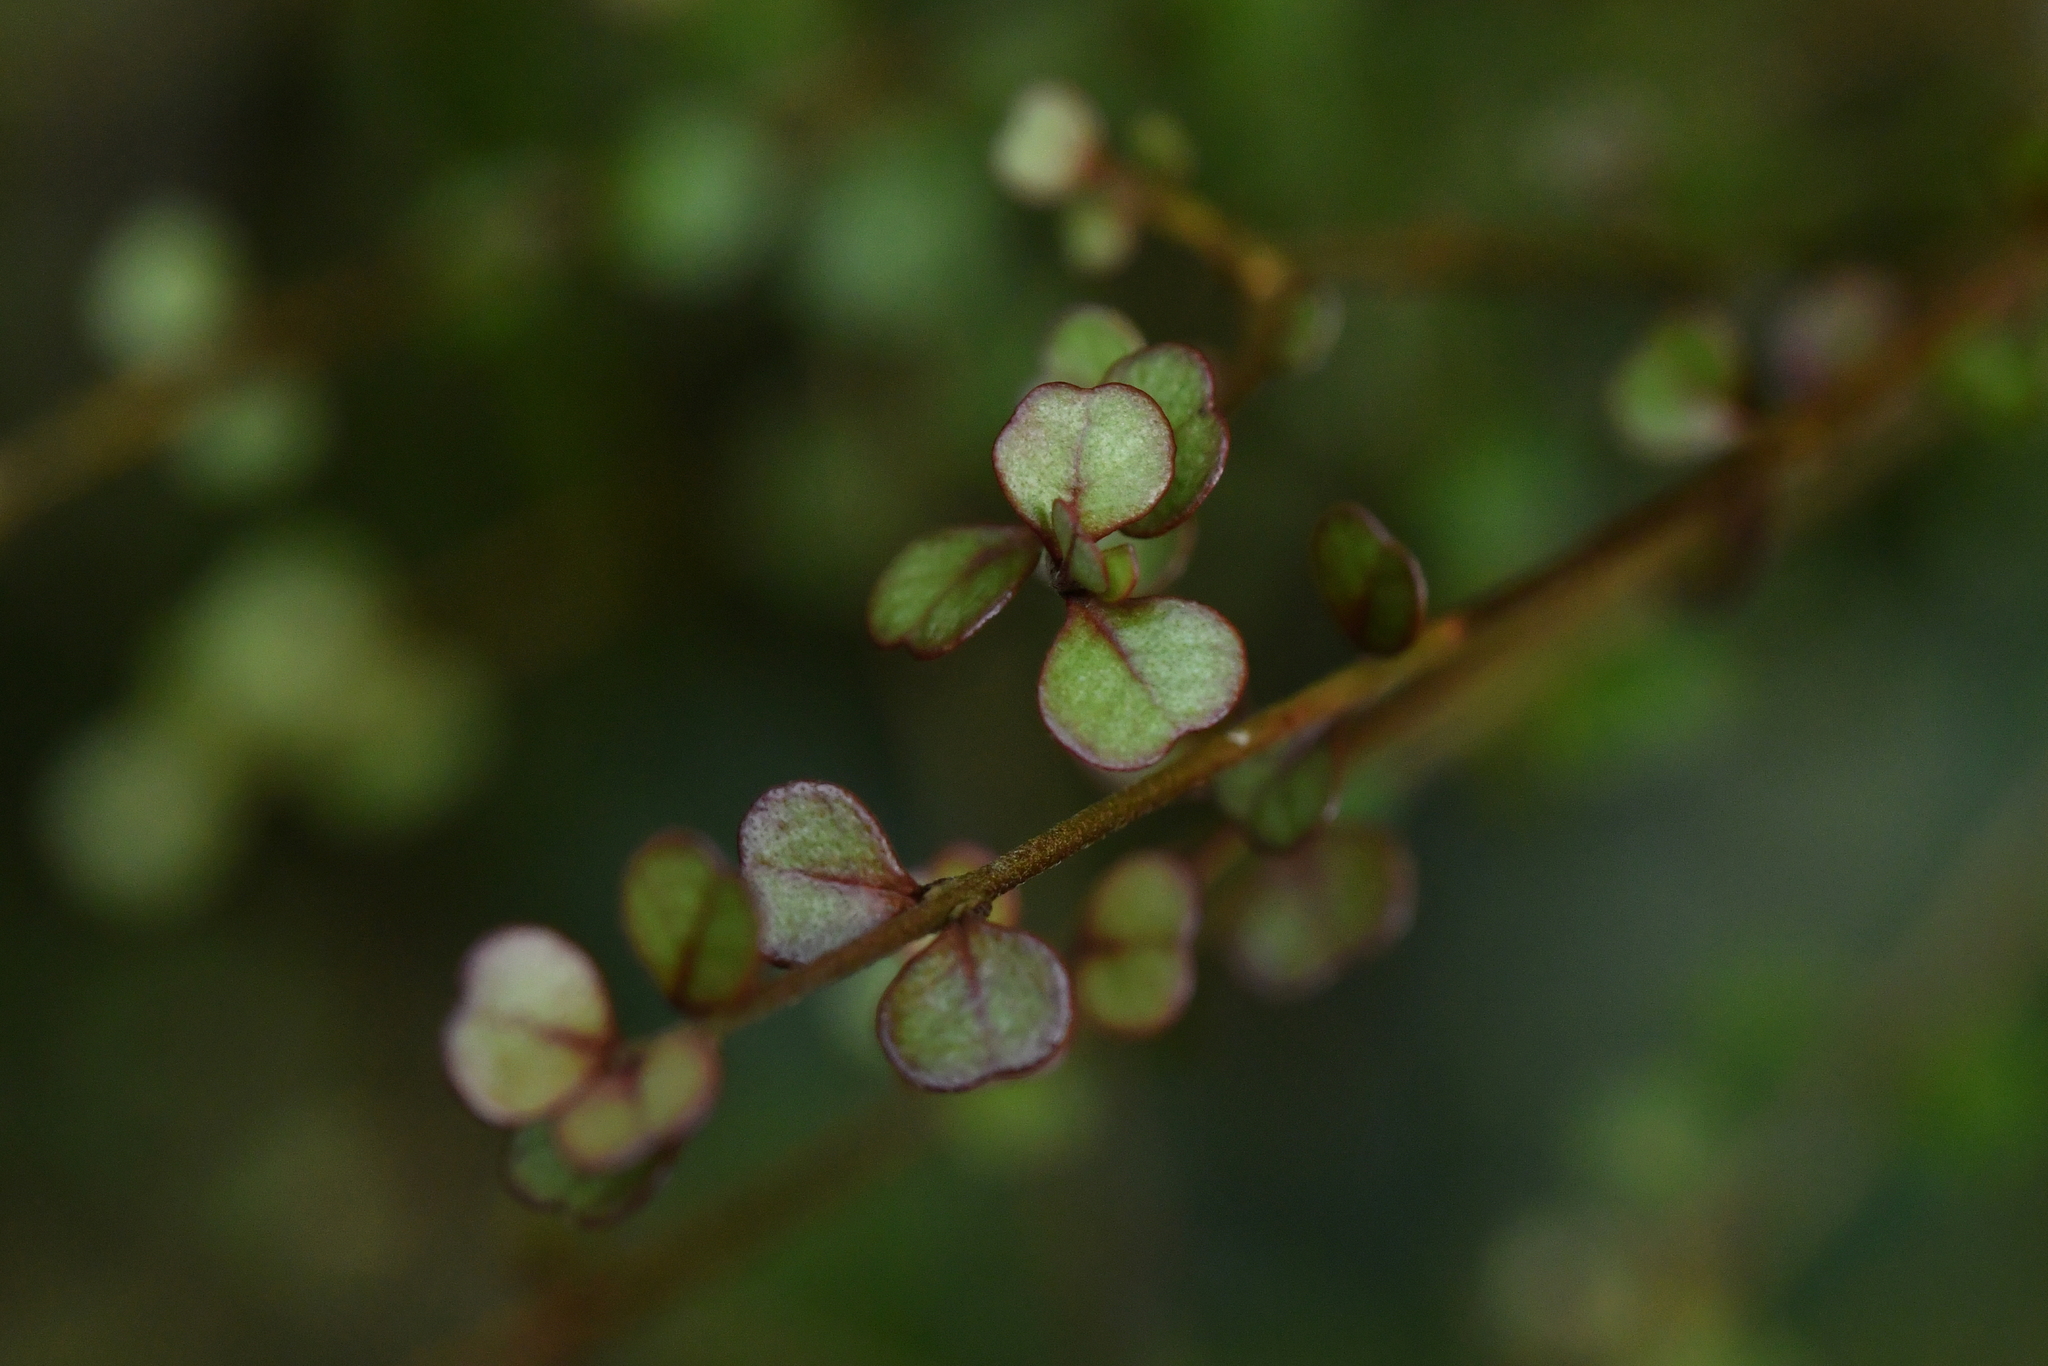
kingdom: Plantae
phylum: Tracheophyta
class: Magnoliopsida
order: Myrtales
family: Myrtaceae
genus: Lophomyrtus
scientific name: Lophomyrtus obcordata
